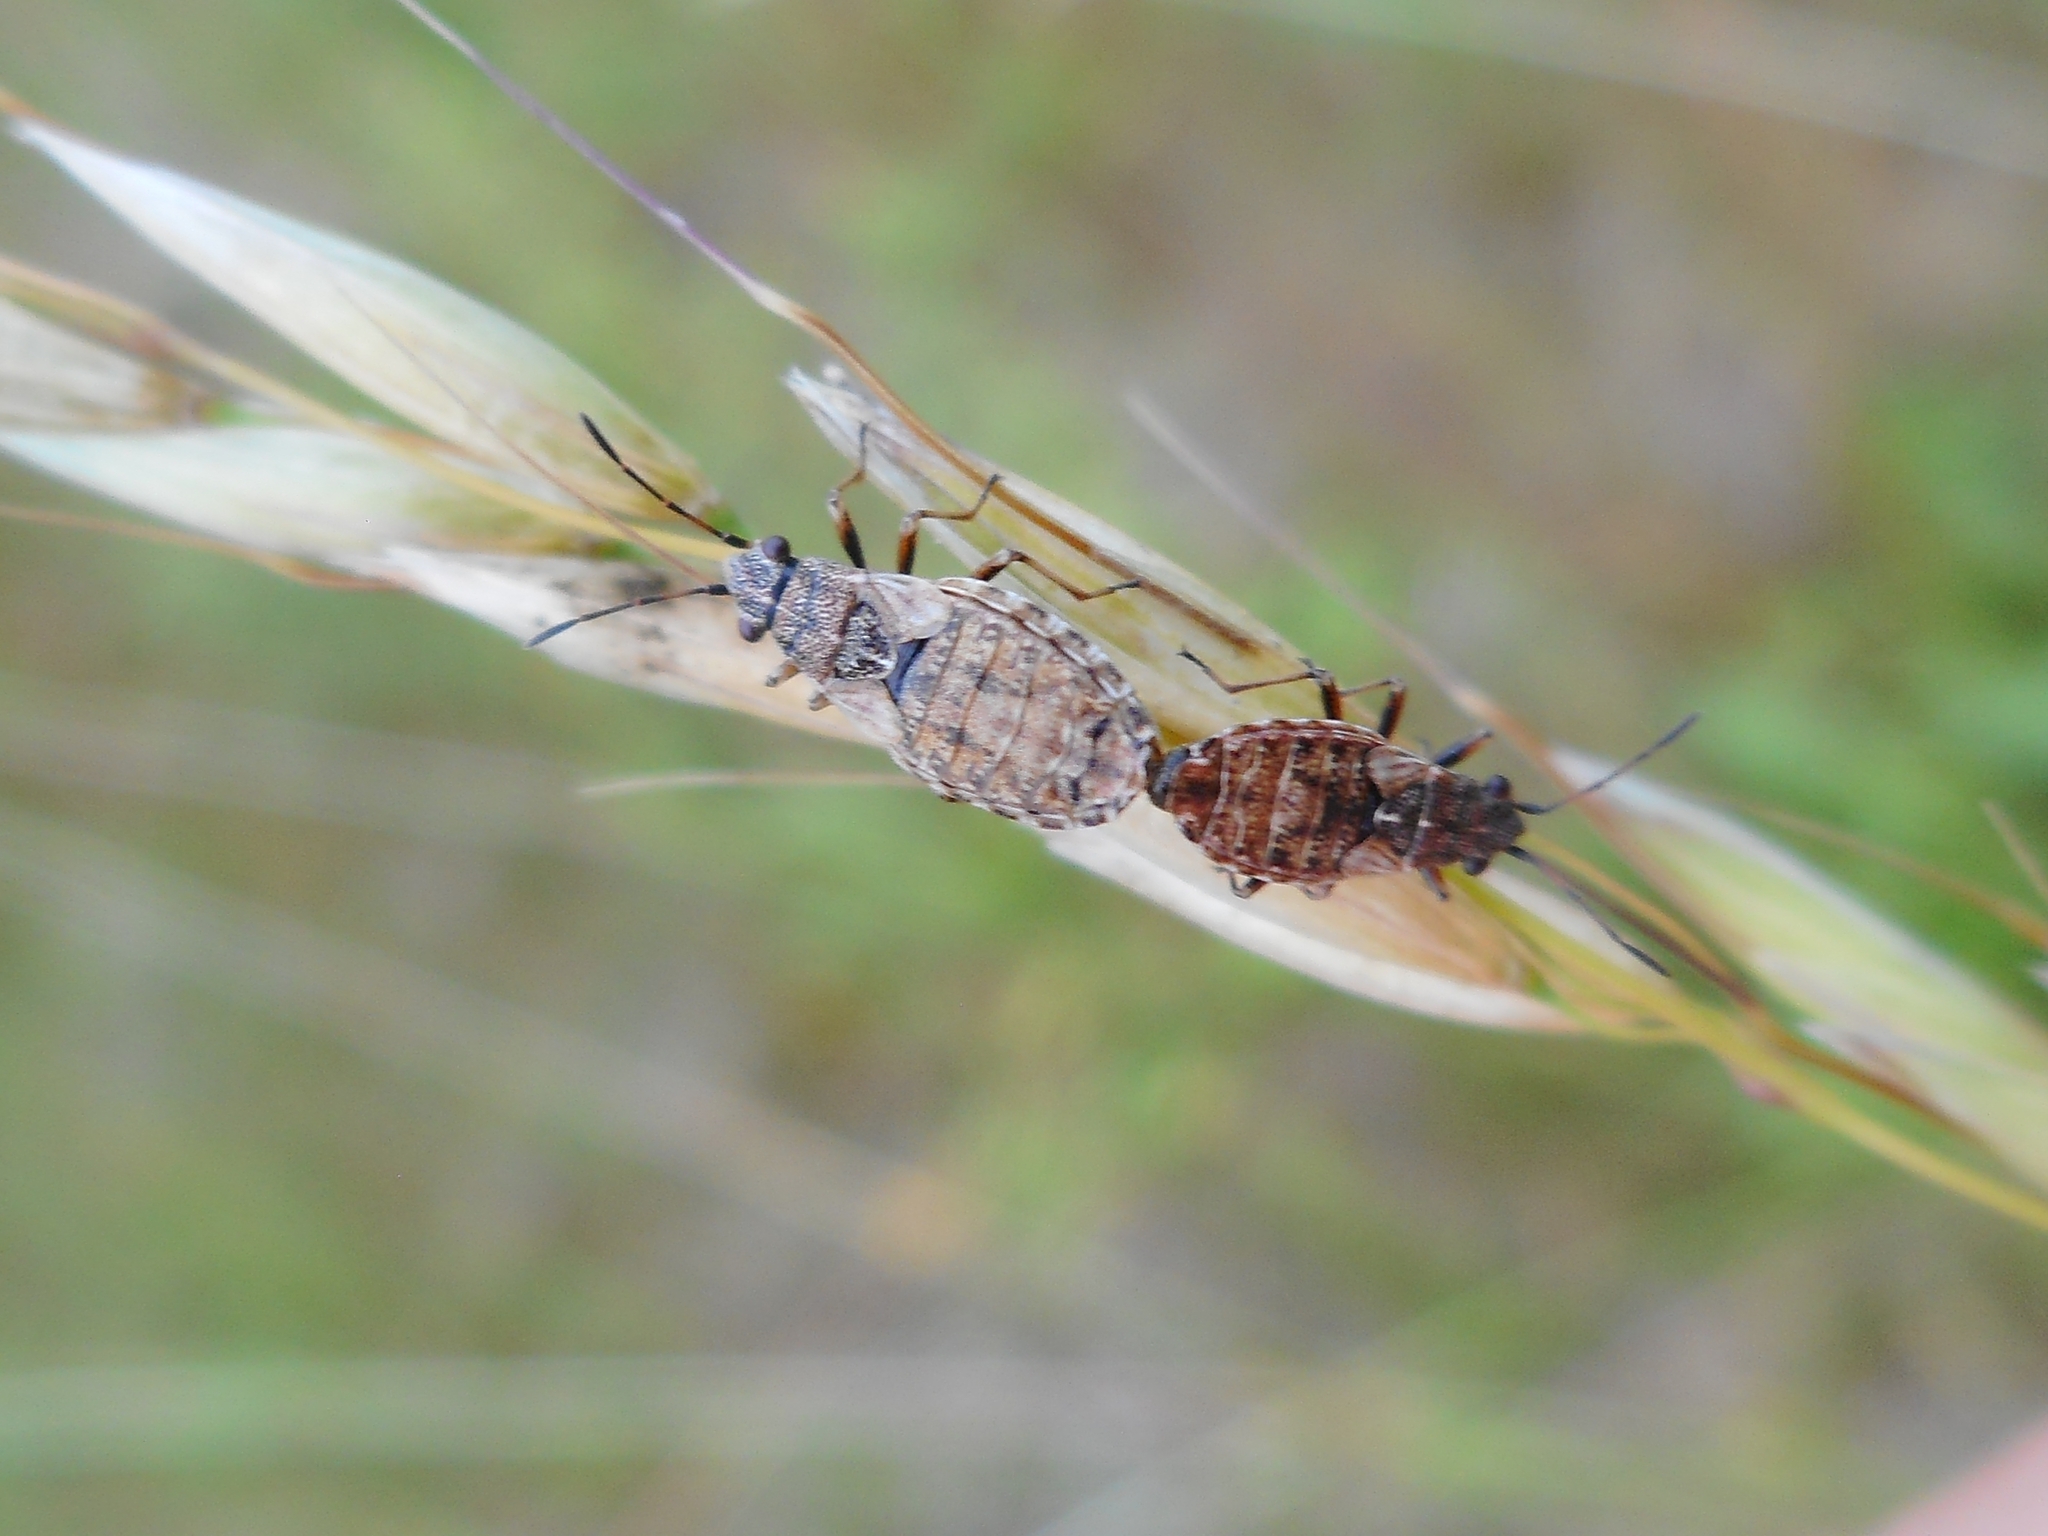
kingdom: Animalia
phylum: Arthropoda
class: Insecta
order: Hemiptera
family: Lygaeidae
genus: Nithecus
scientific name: Nithecus jacobaeae
